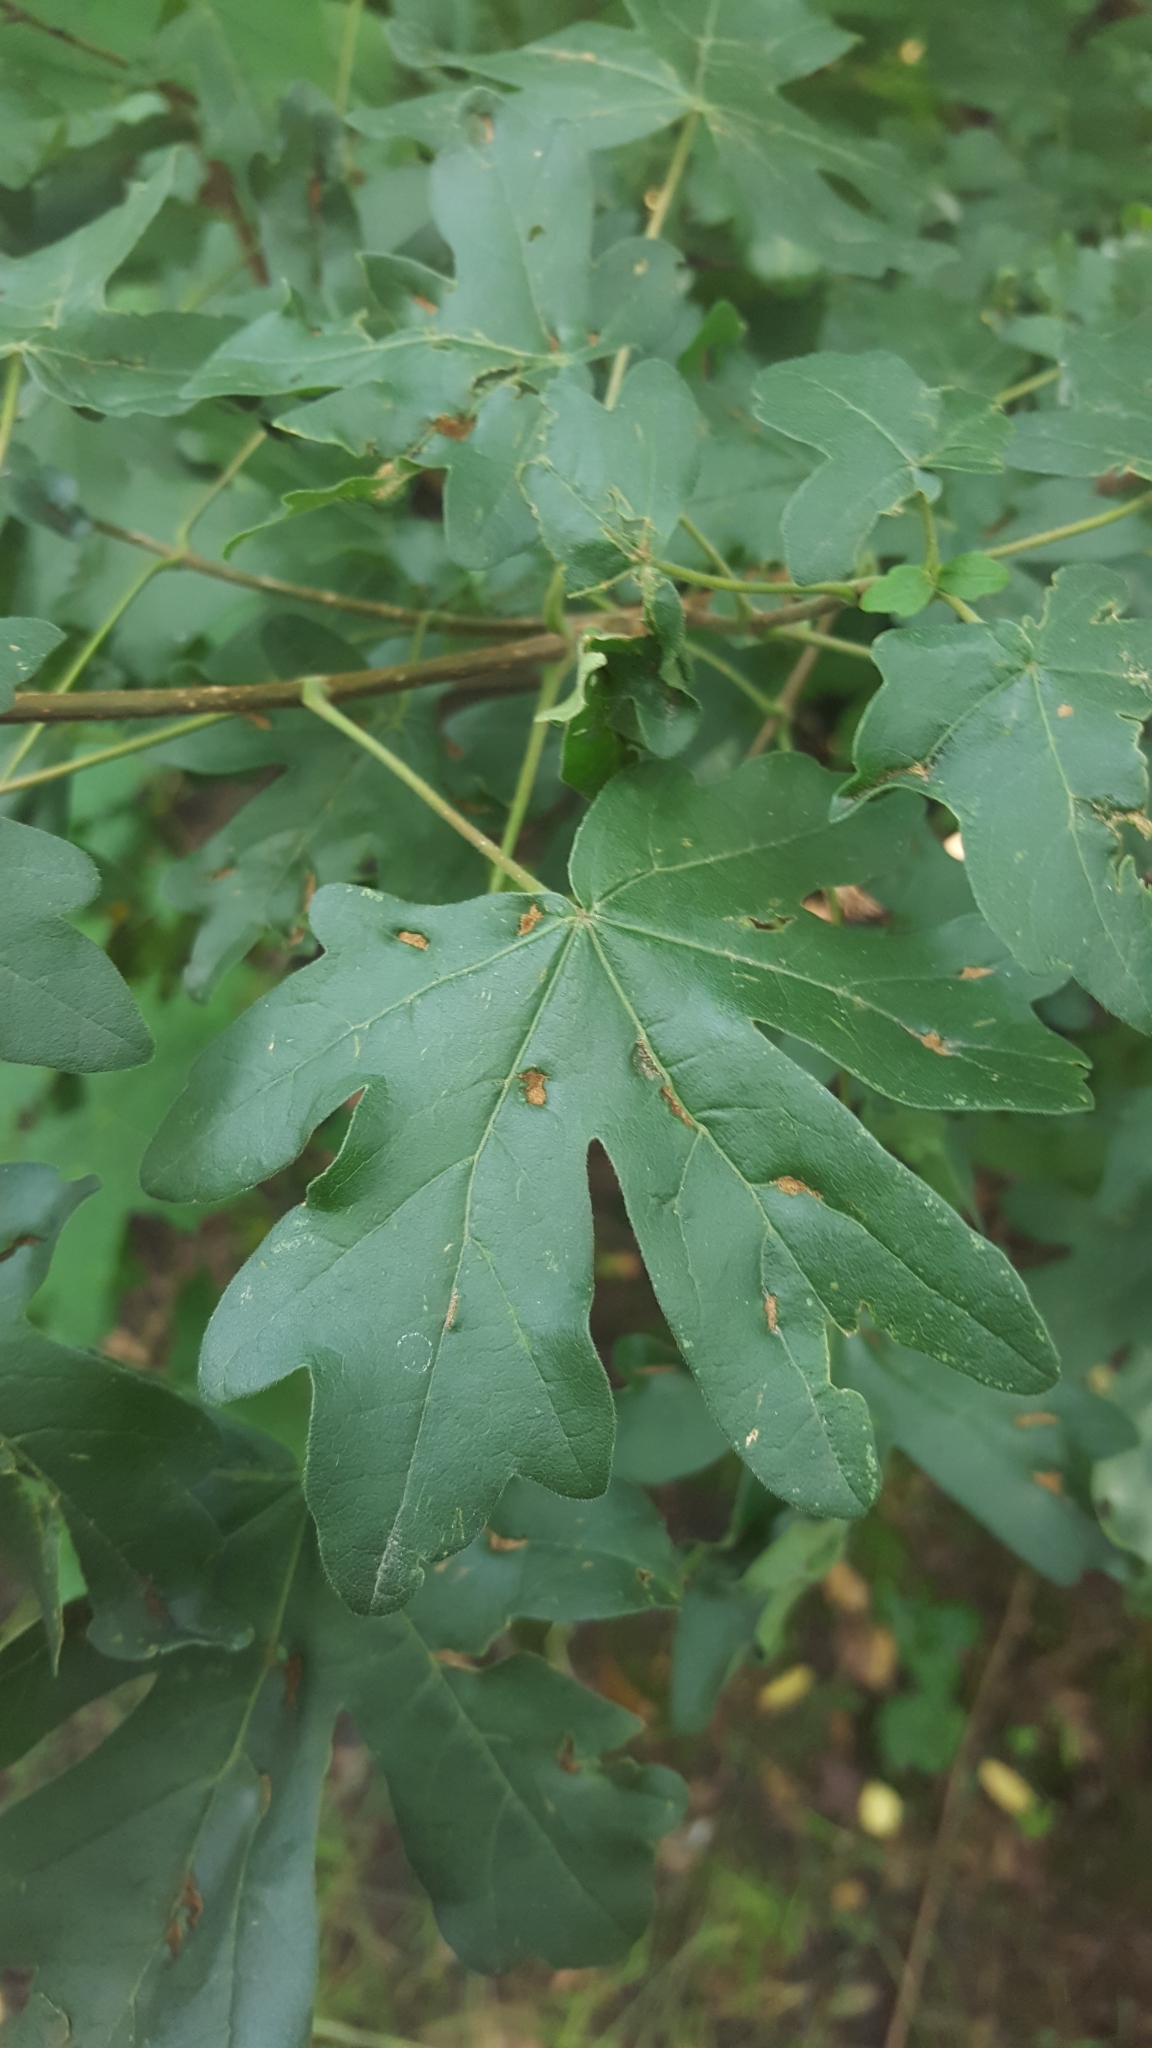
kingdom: Plantae
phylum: Tracheophyta
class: Magnoliopsida
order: Sapindales
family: Sapindaceae
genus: Acer
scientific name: Acer campestre
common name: Field maple
